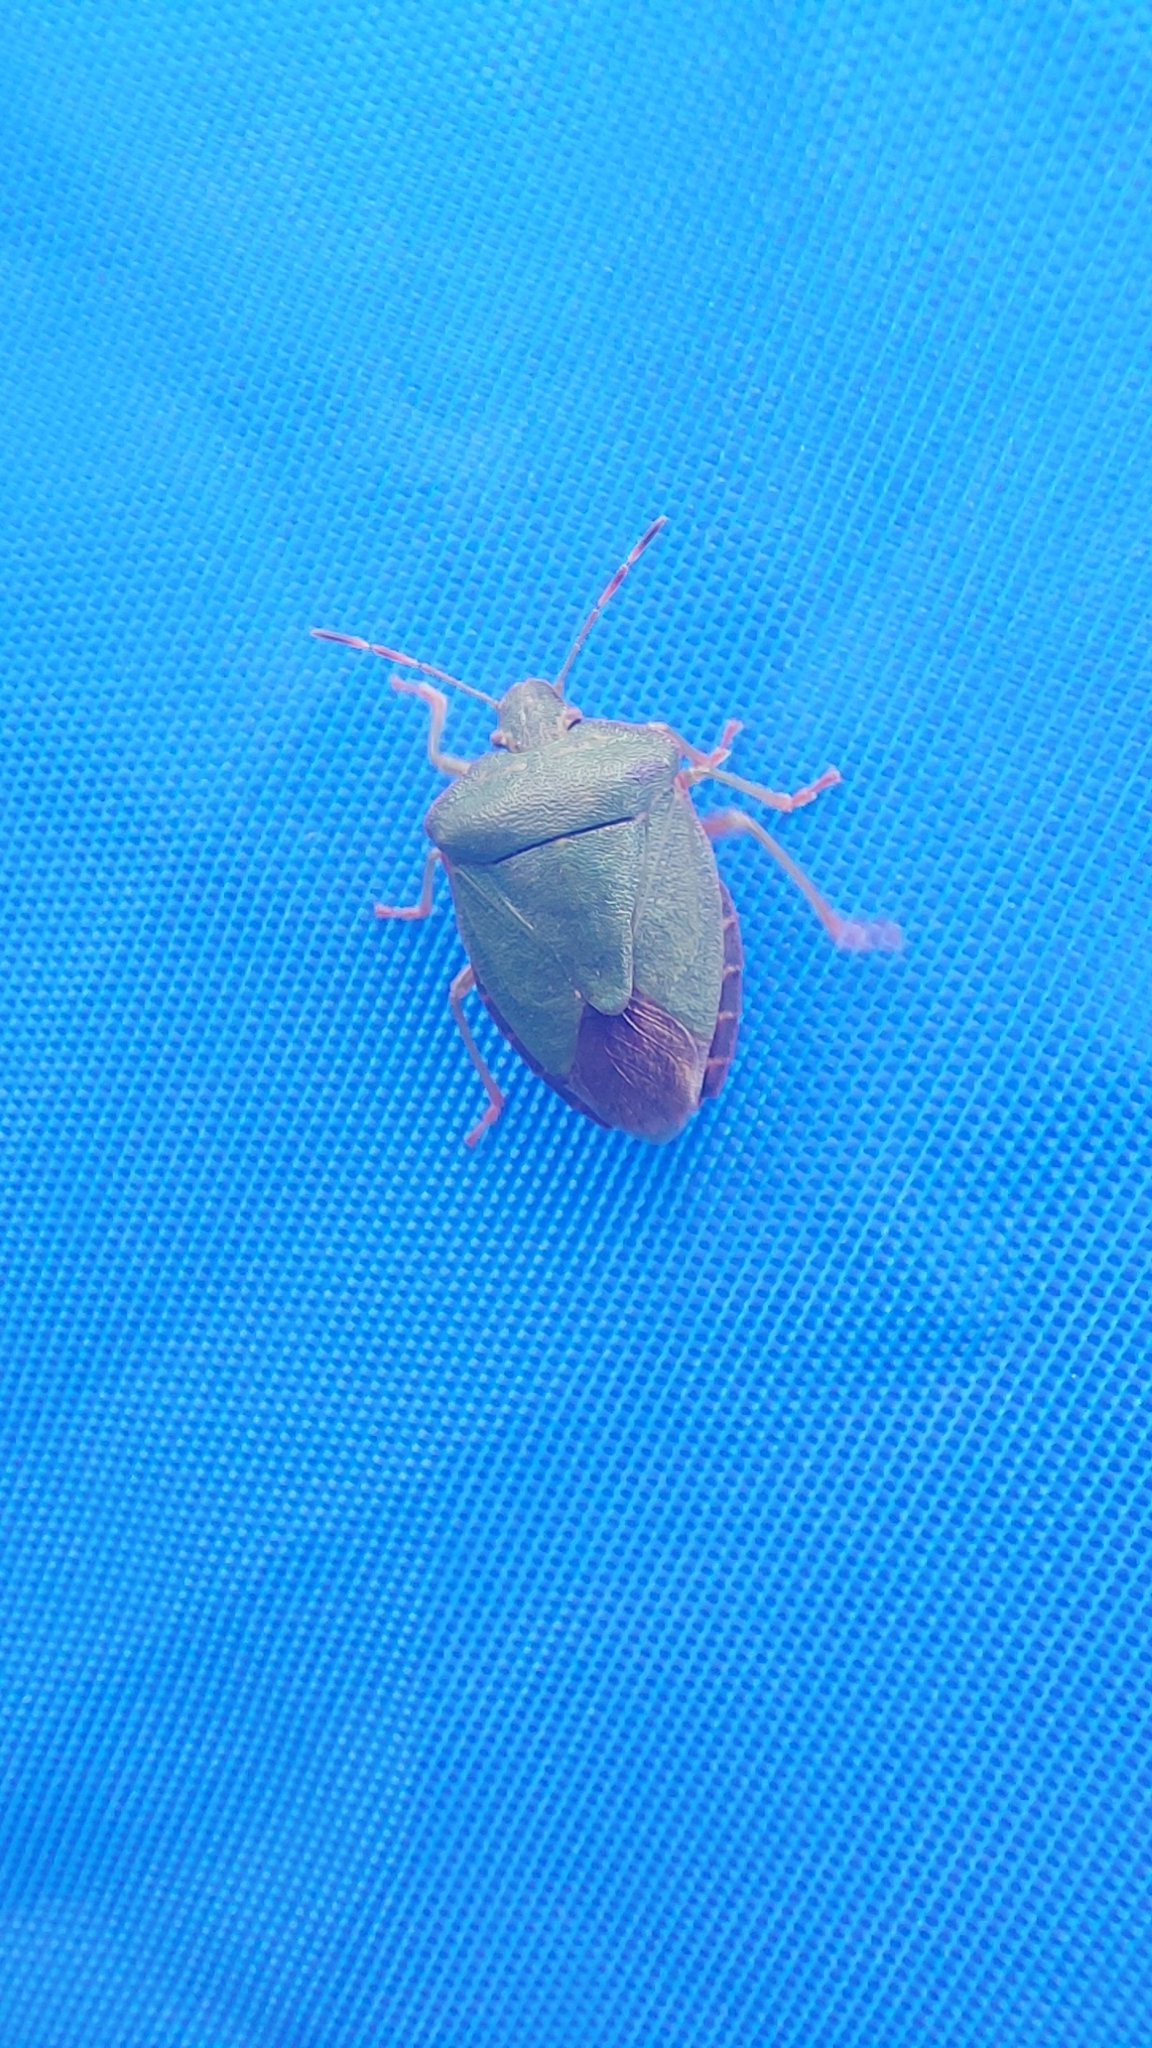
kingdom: Animalia
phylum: Arthropoda
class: Insecta
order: Hemiptera
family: Pentatomidae
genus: Palomena
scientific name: Palomena prasina
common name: Green shieldbug
